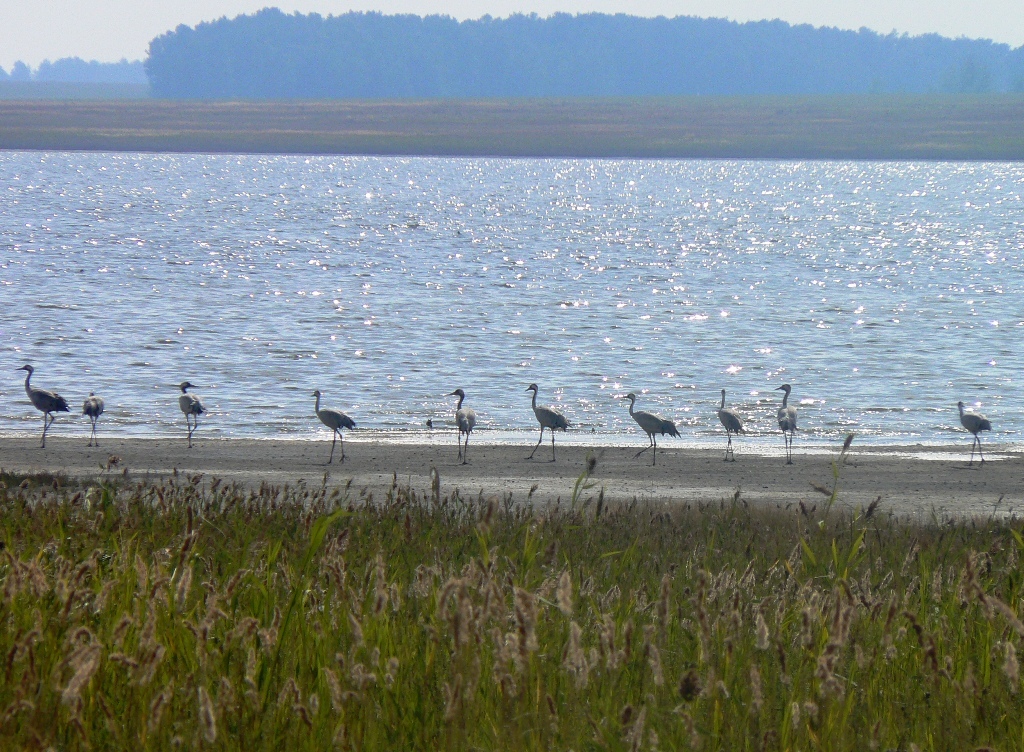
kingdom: Animalia
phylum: Chordata
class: Aves
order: Gruiformes
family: Gruidae
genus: Grus
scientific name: Grus grus
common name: Common crane
